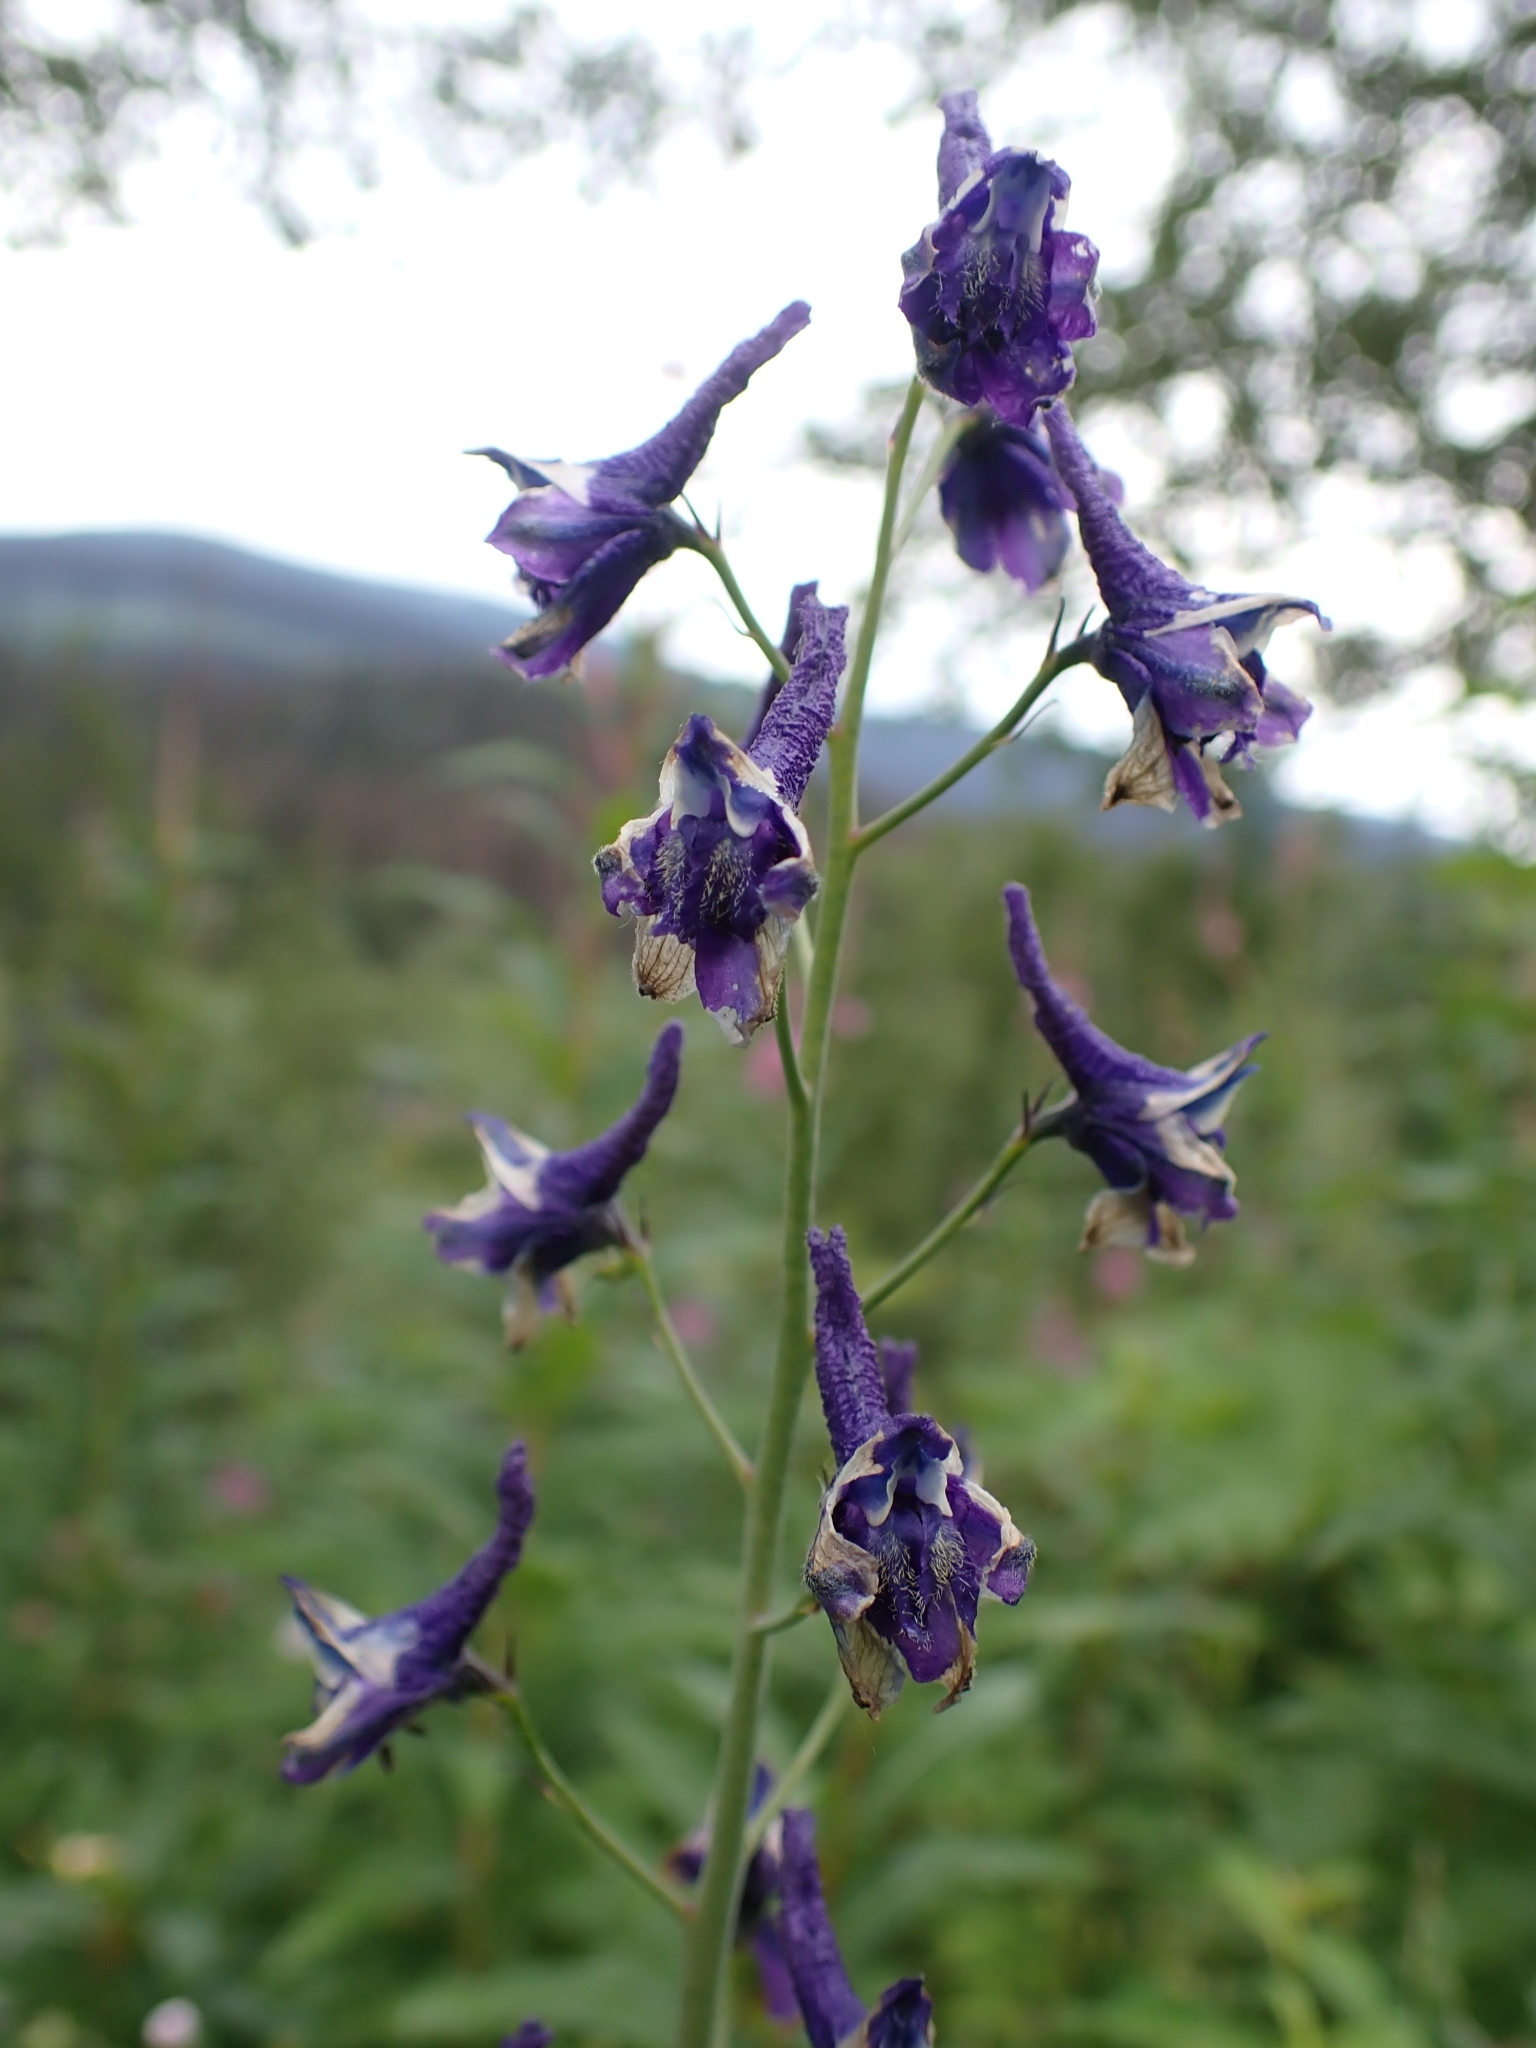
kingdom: Plantae
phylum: Tracheophyta
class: Magnoliopsida
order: Ranunculales
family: Ranunculaceae
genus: Delphinium
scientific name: Delphinium glaucum
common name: Brown's larkspur
